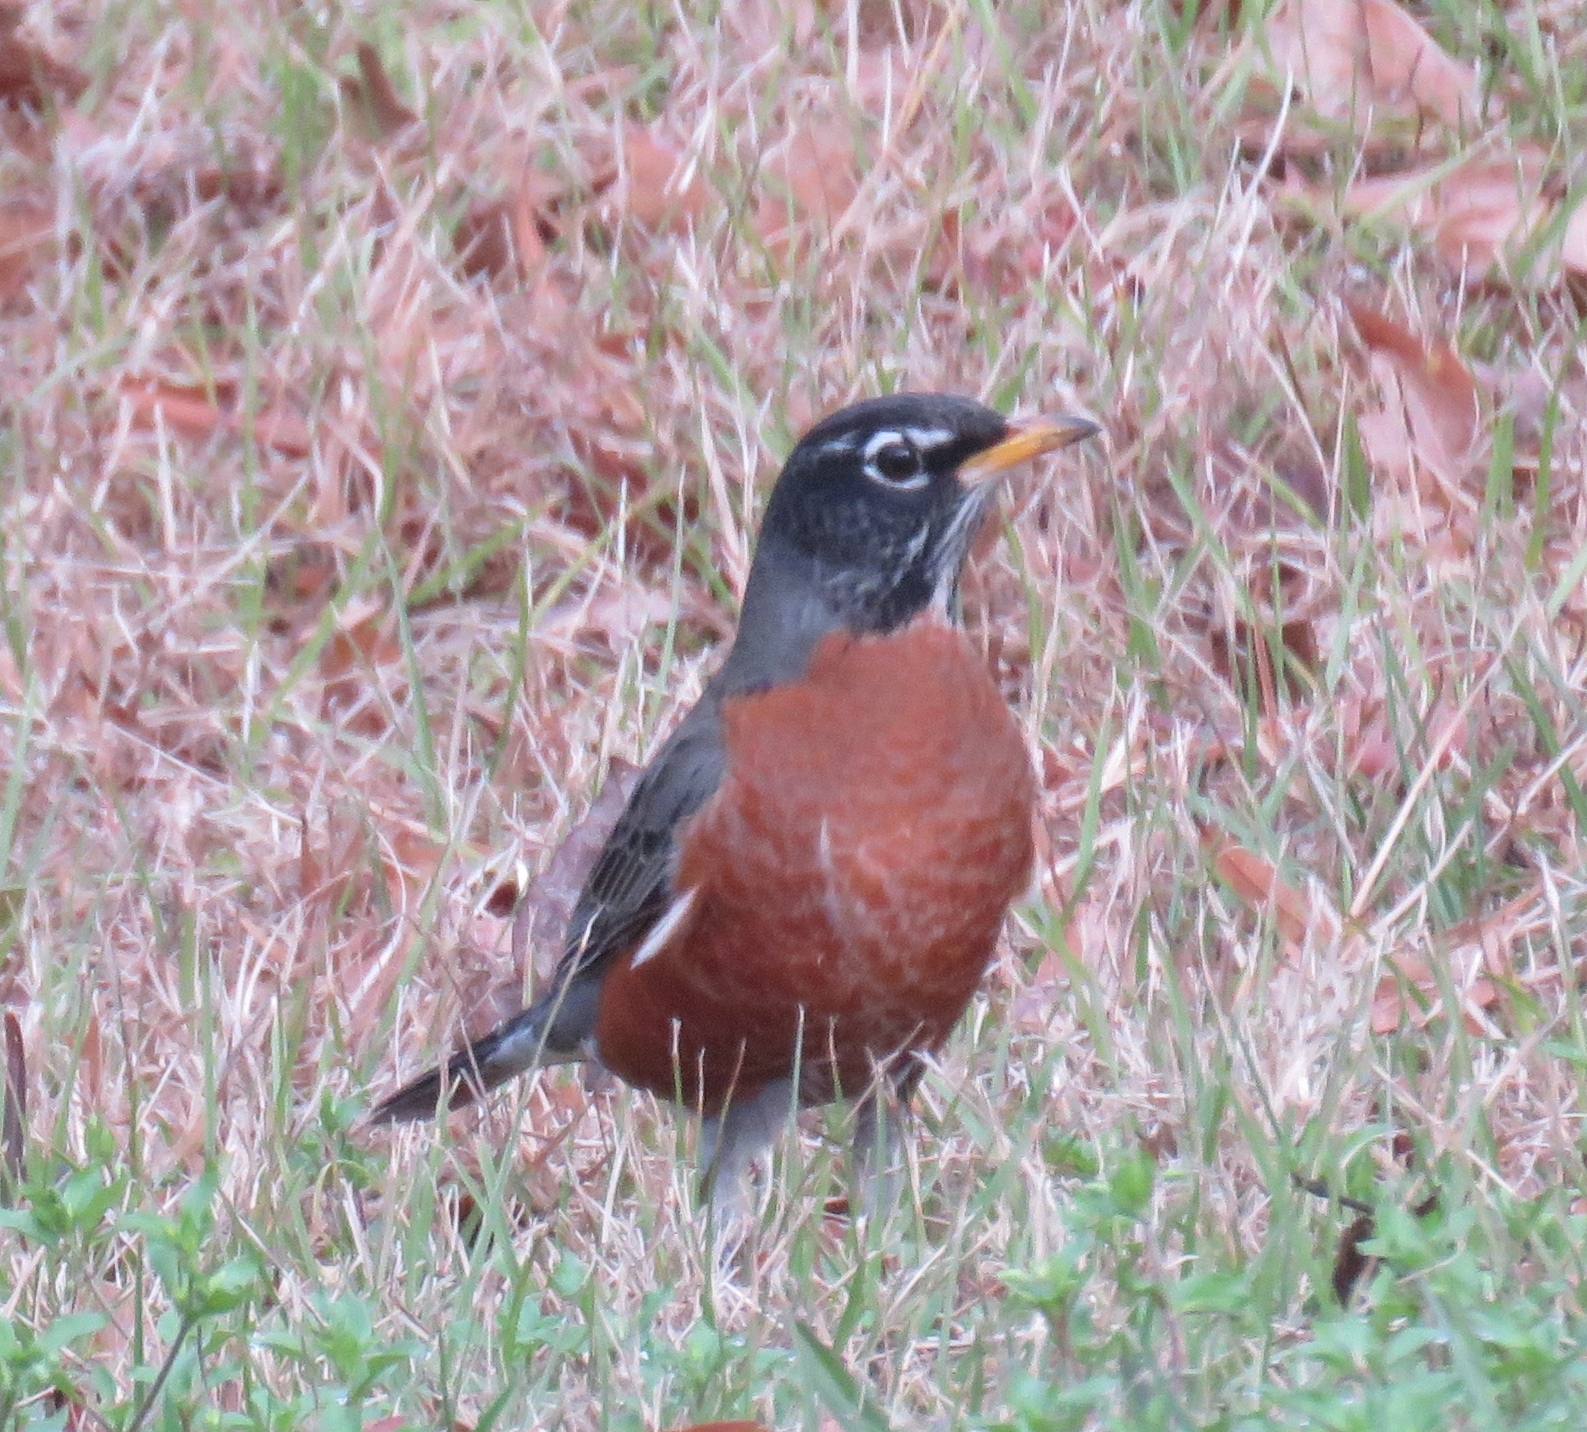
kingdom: Animalia
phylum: Chordata
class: Aves
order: Passeriformes
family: Turdidae
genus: Turdus
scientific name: Turdus migratorius
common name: American robin
